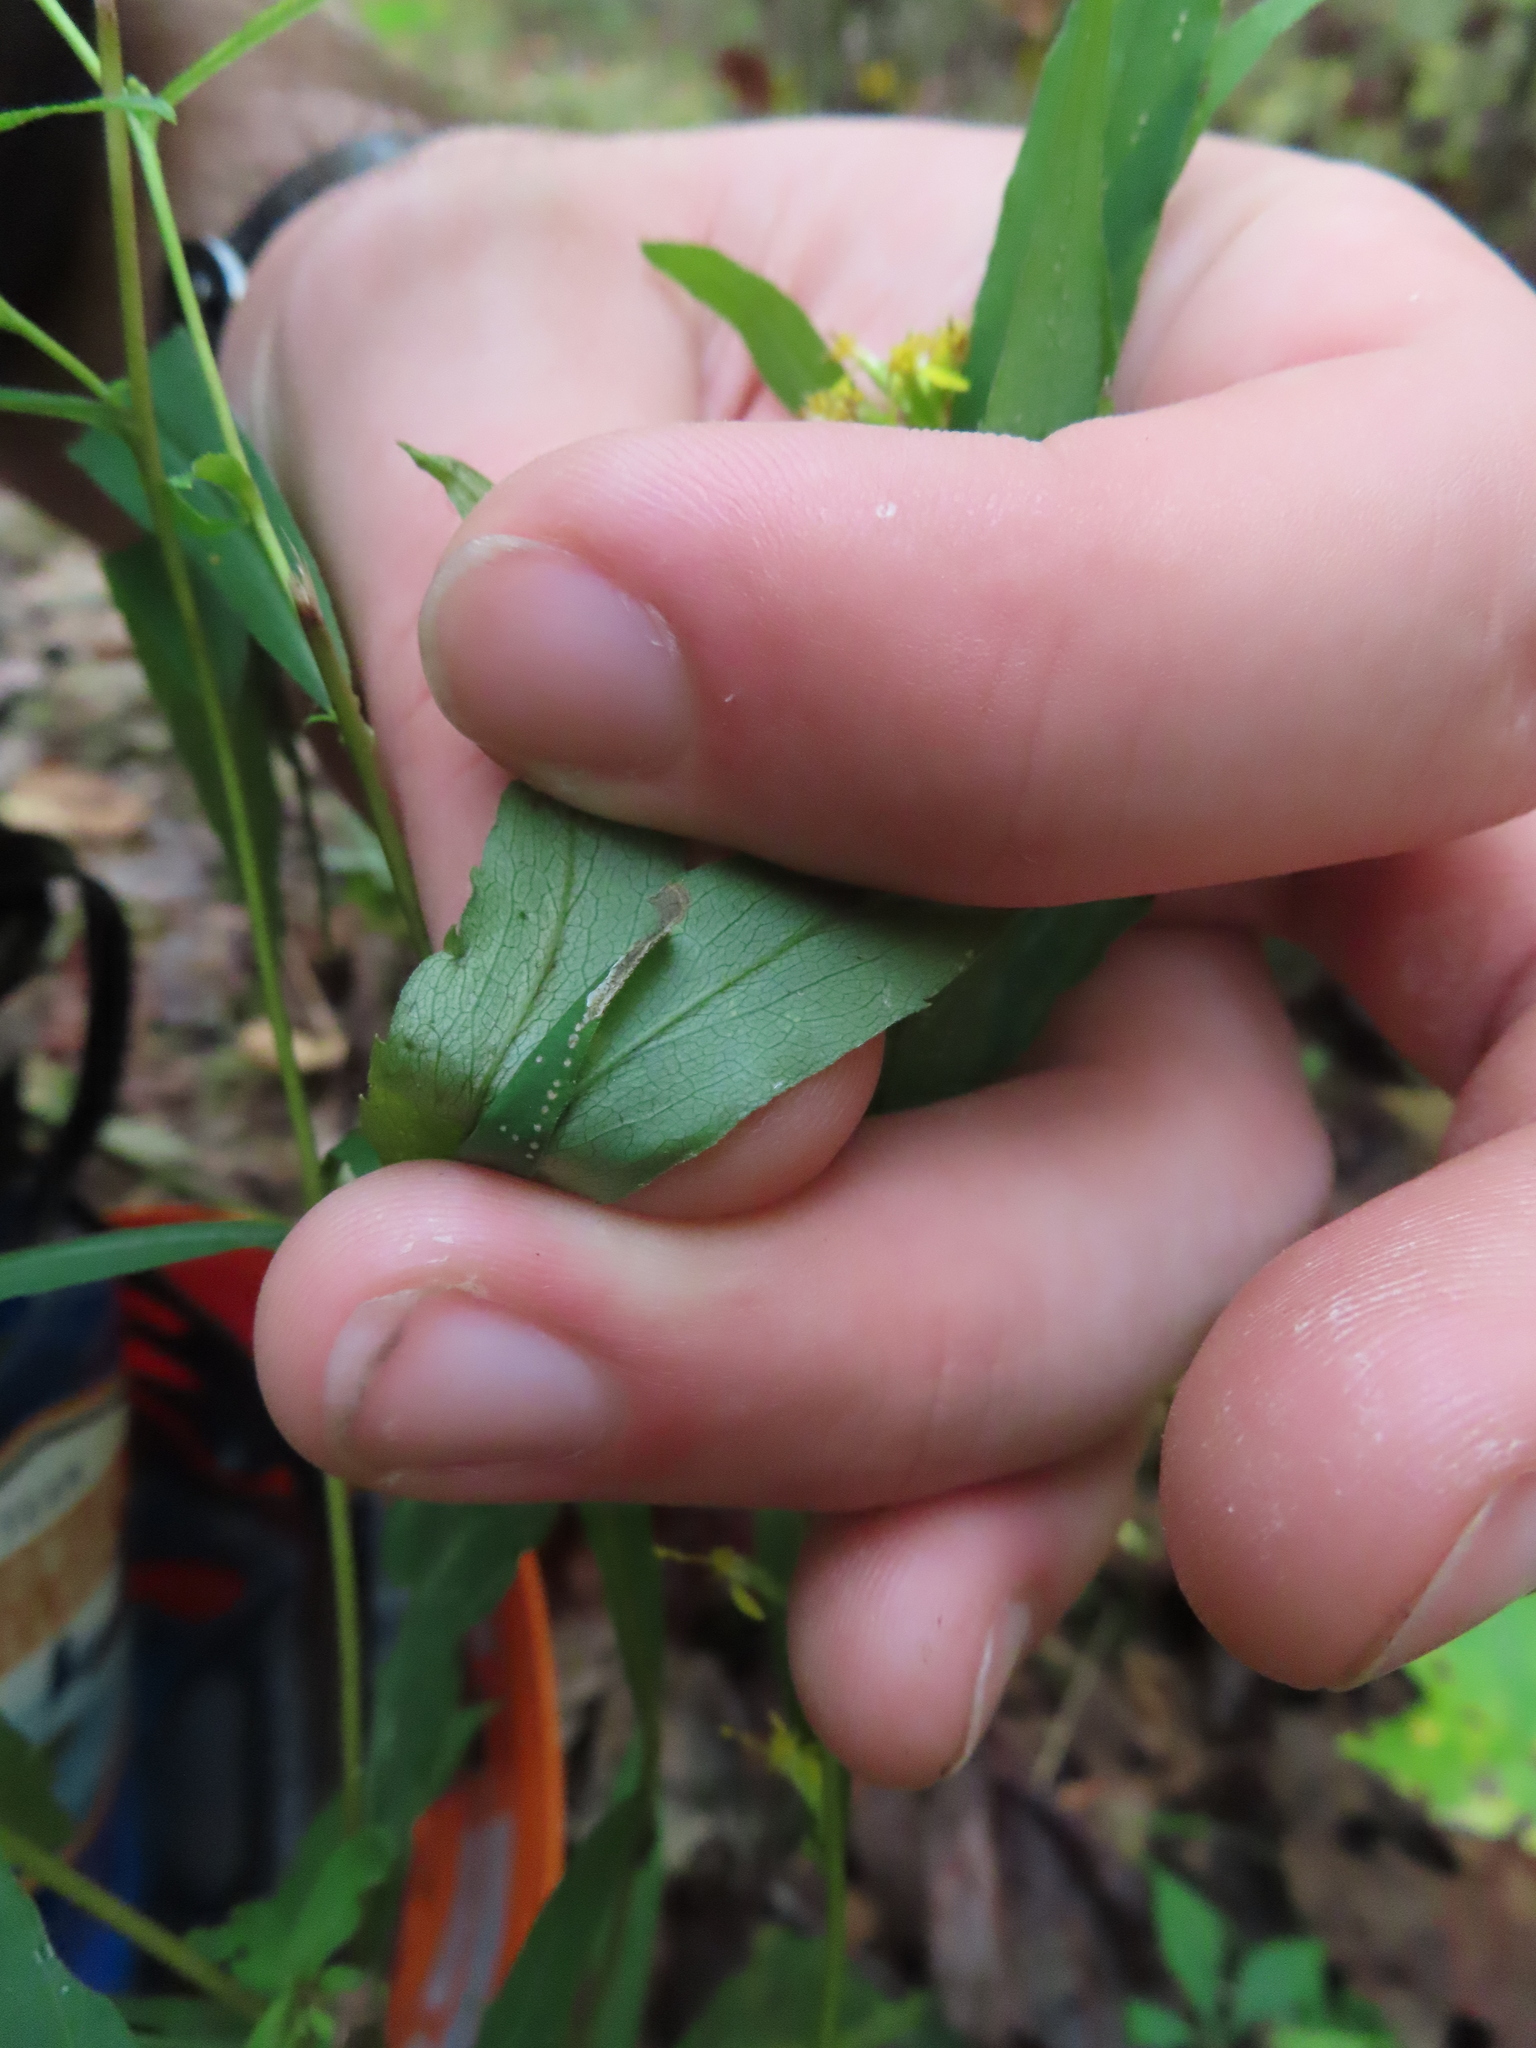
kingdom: Animalia
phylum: Arthropoda
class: Insecta
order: Diptera
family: Agromyzidae
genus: Nemorimyza
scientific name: Nemorimyza posticata
